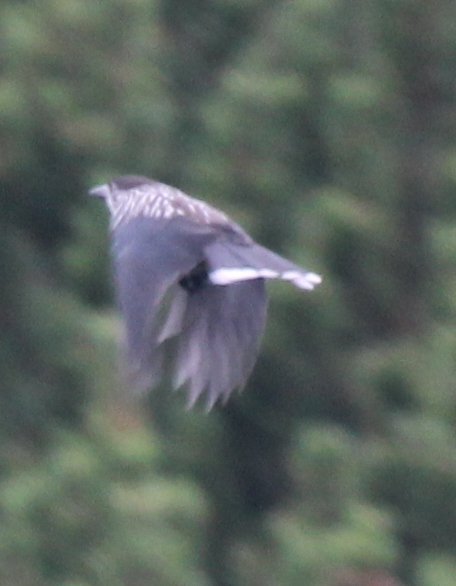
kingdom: Animalia
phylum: Chordata
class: Aves
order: Passeriformes
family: Corvidae
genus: Nucifraga
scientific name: Nucifraga caryocatactes
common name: Spotted nutcracker
